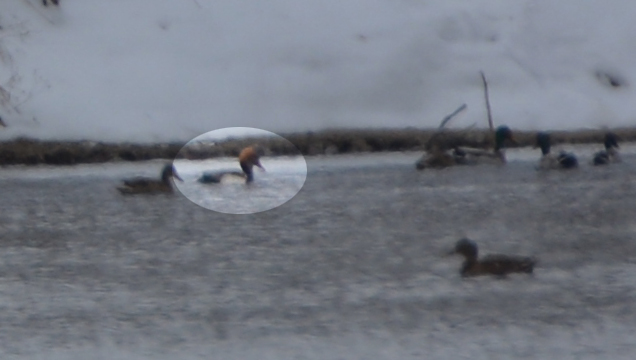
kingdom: Animalia
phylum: Chordata
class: Aves
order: Anseriformes
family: Anatidae
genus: Netta
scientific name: Netta rufina
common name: Red-crested pochard
